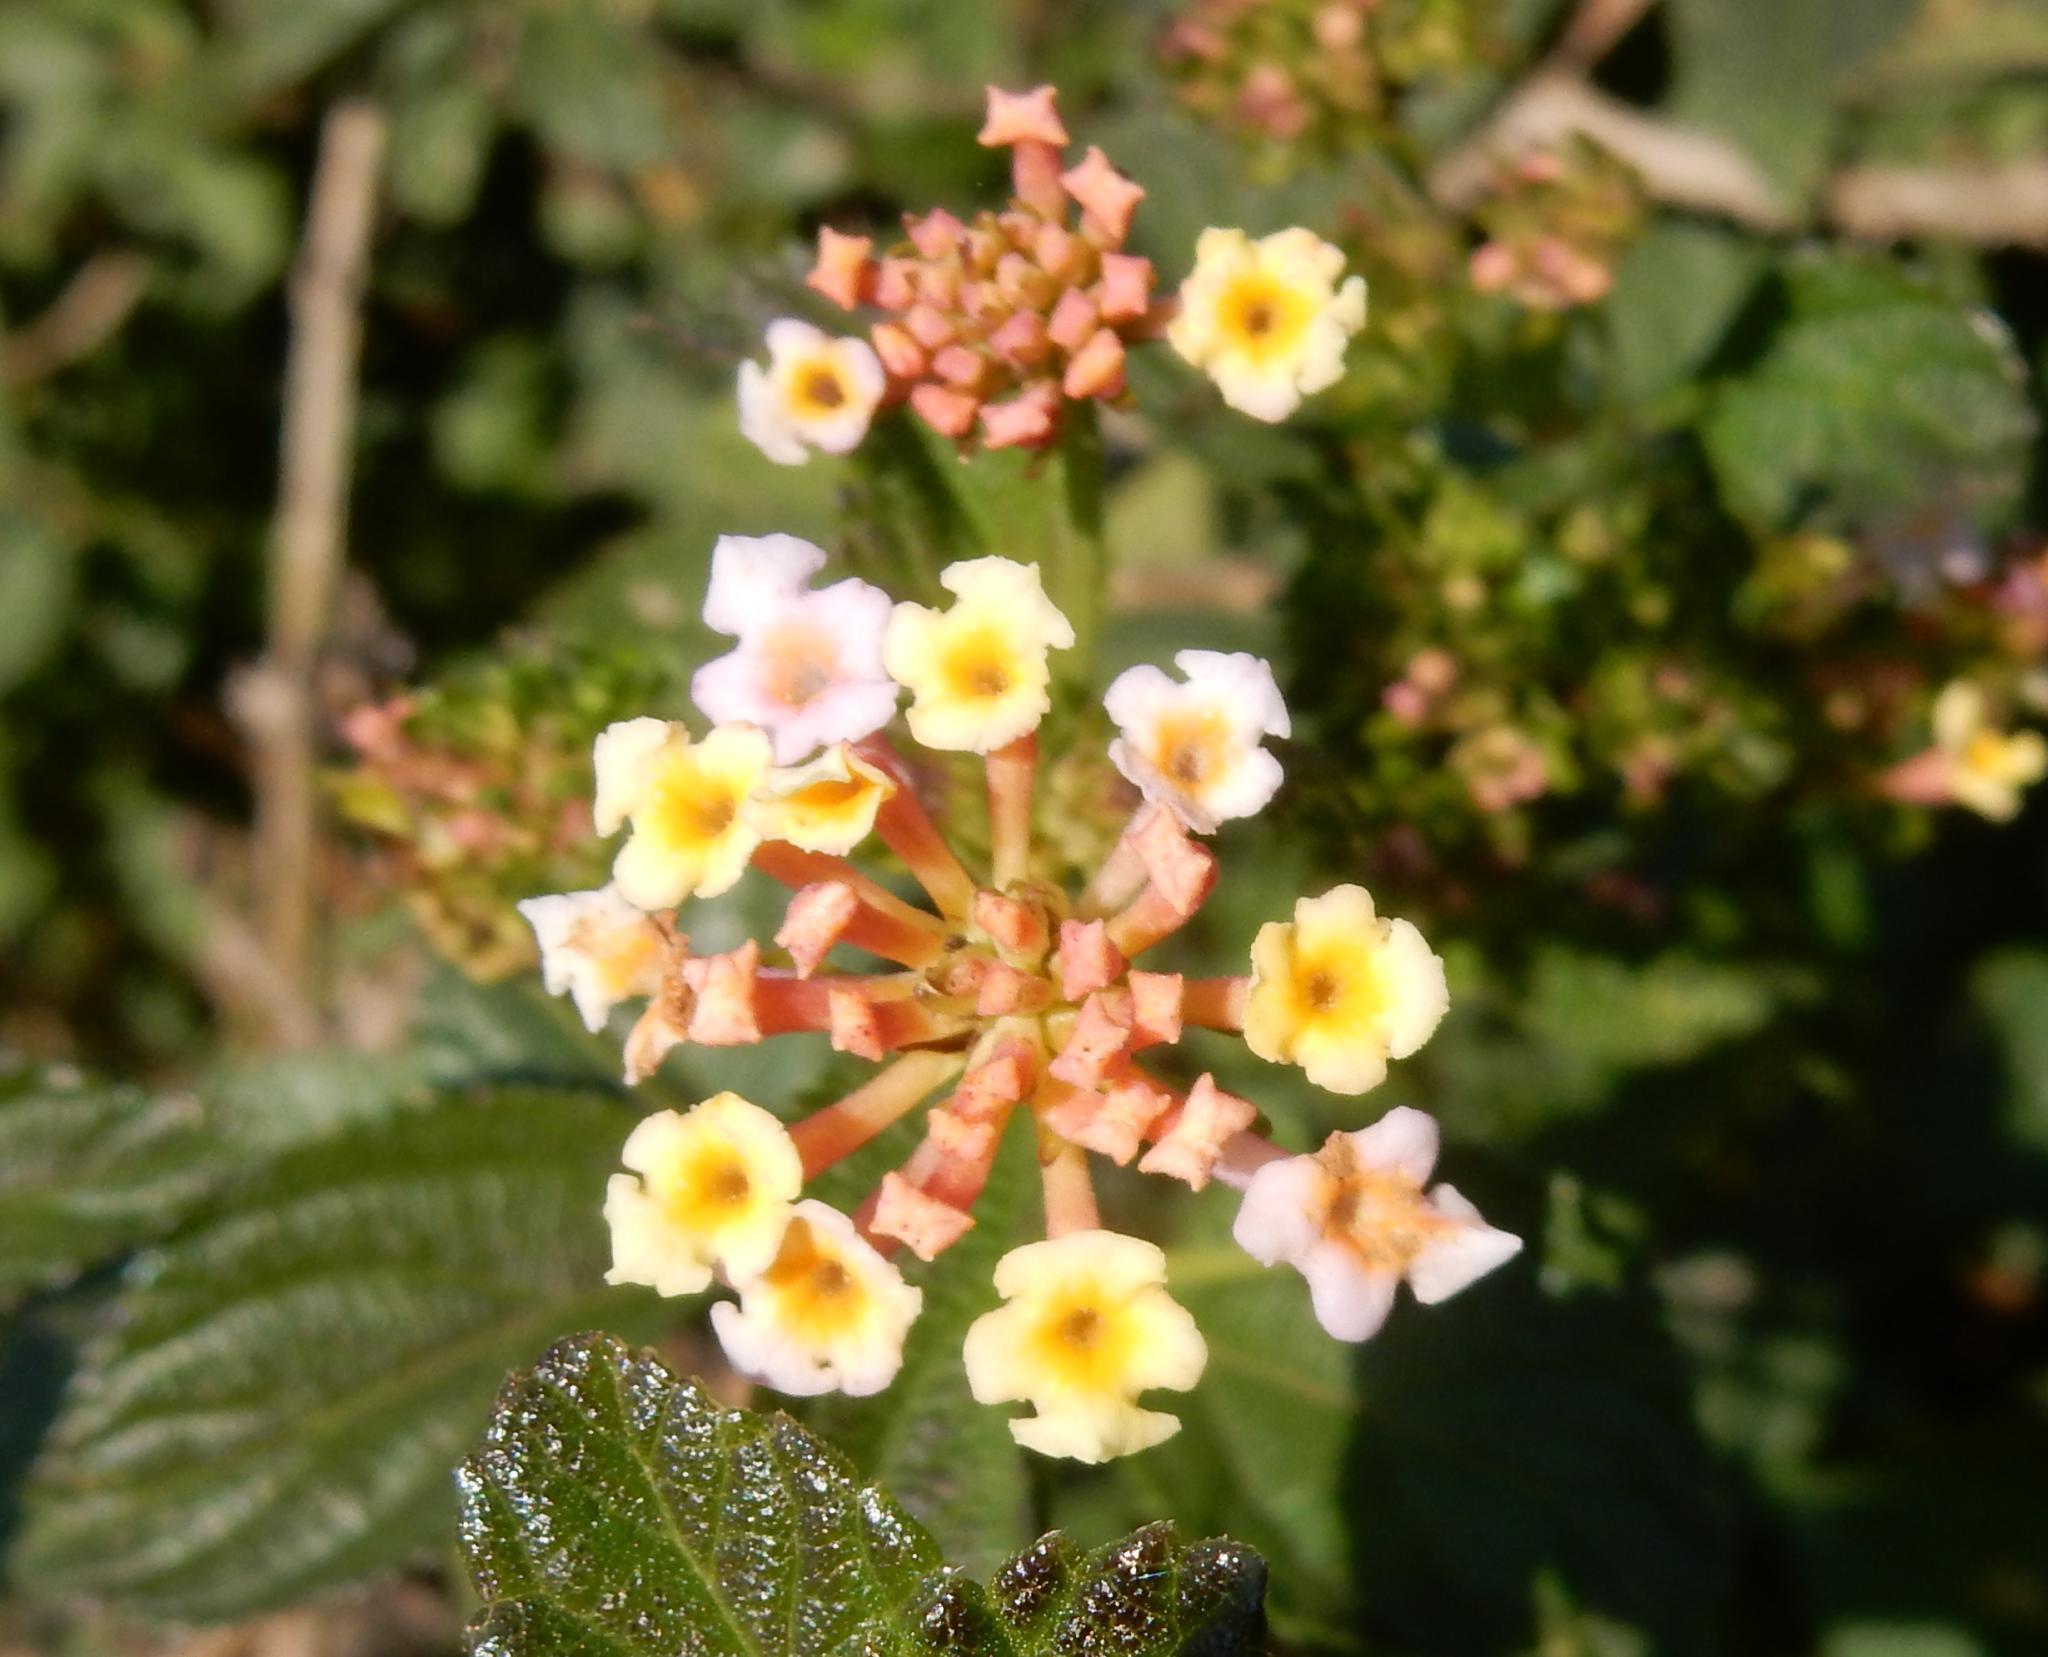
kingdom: Plantae
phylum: Tracheophyta
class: Magnoliopsida
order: Lamiales
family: Verbenaceae
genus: Lantana
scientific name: Lantana camara
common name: Lantana
